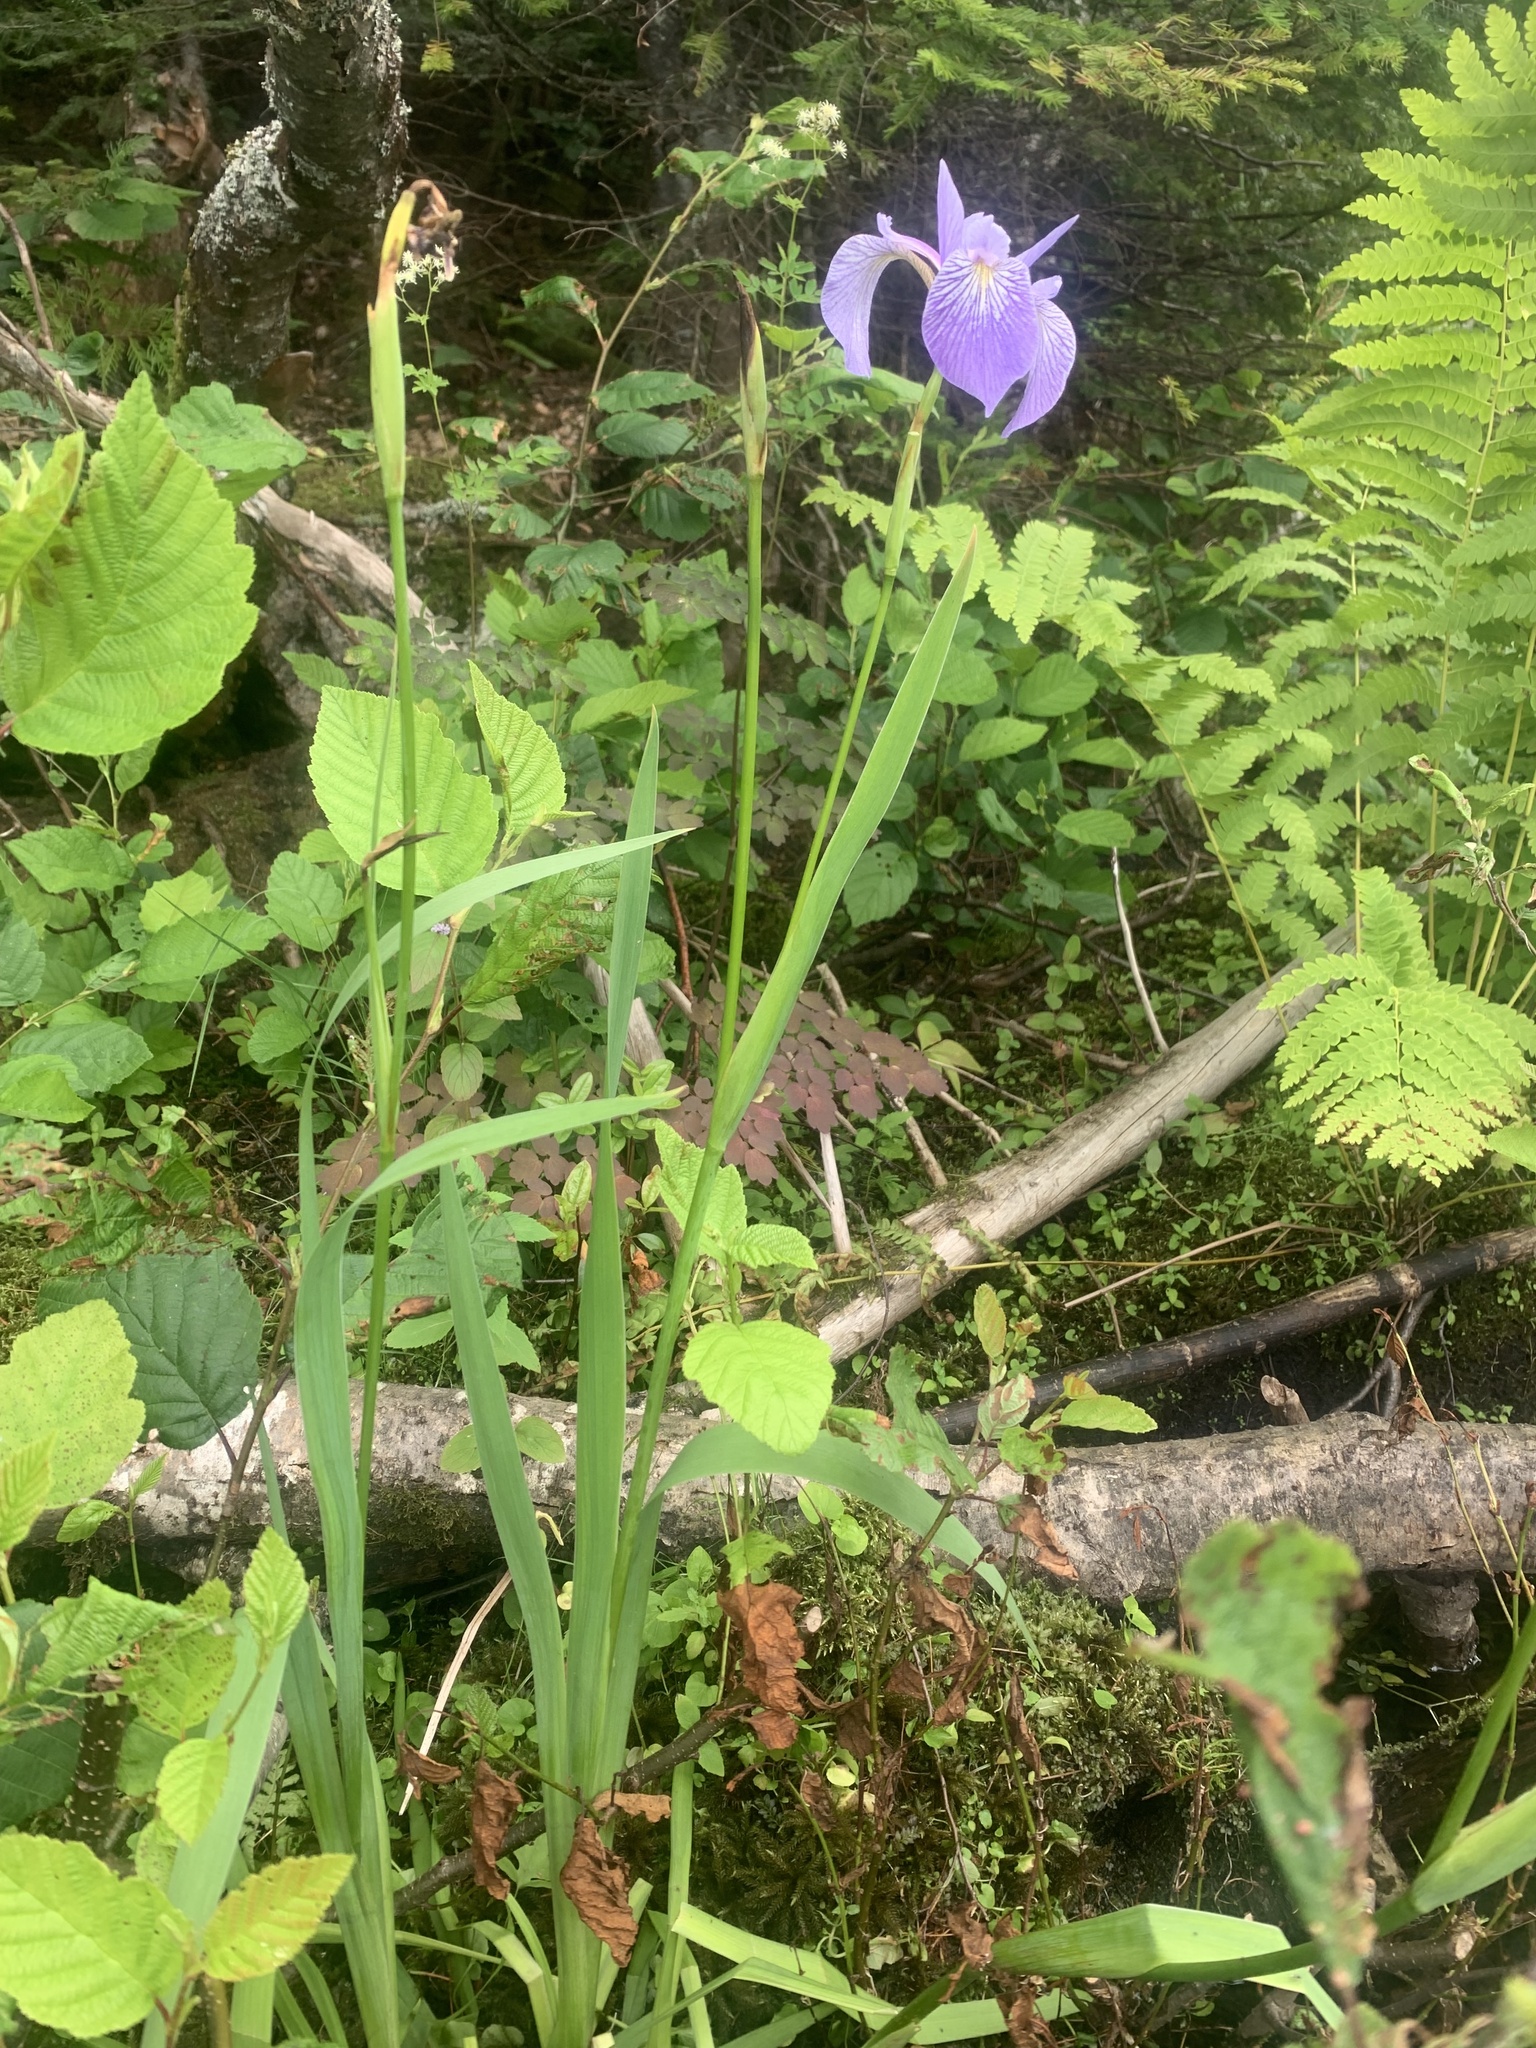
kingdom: Plantae
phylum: Tracheophyta
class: Liliopsida
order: Asparagales
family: Iridaceae
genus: Iris
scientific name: Iris versicolor
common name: Purple iris
